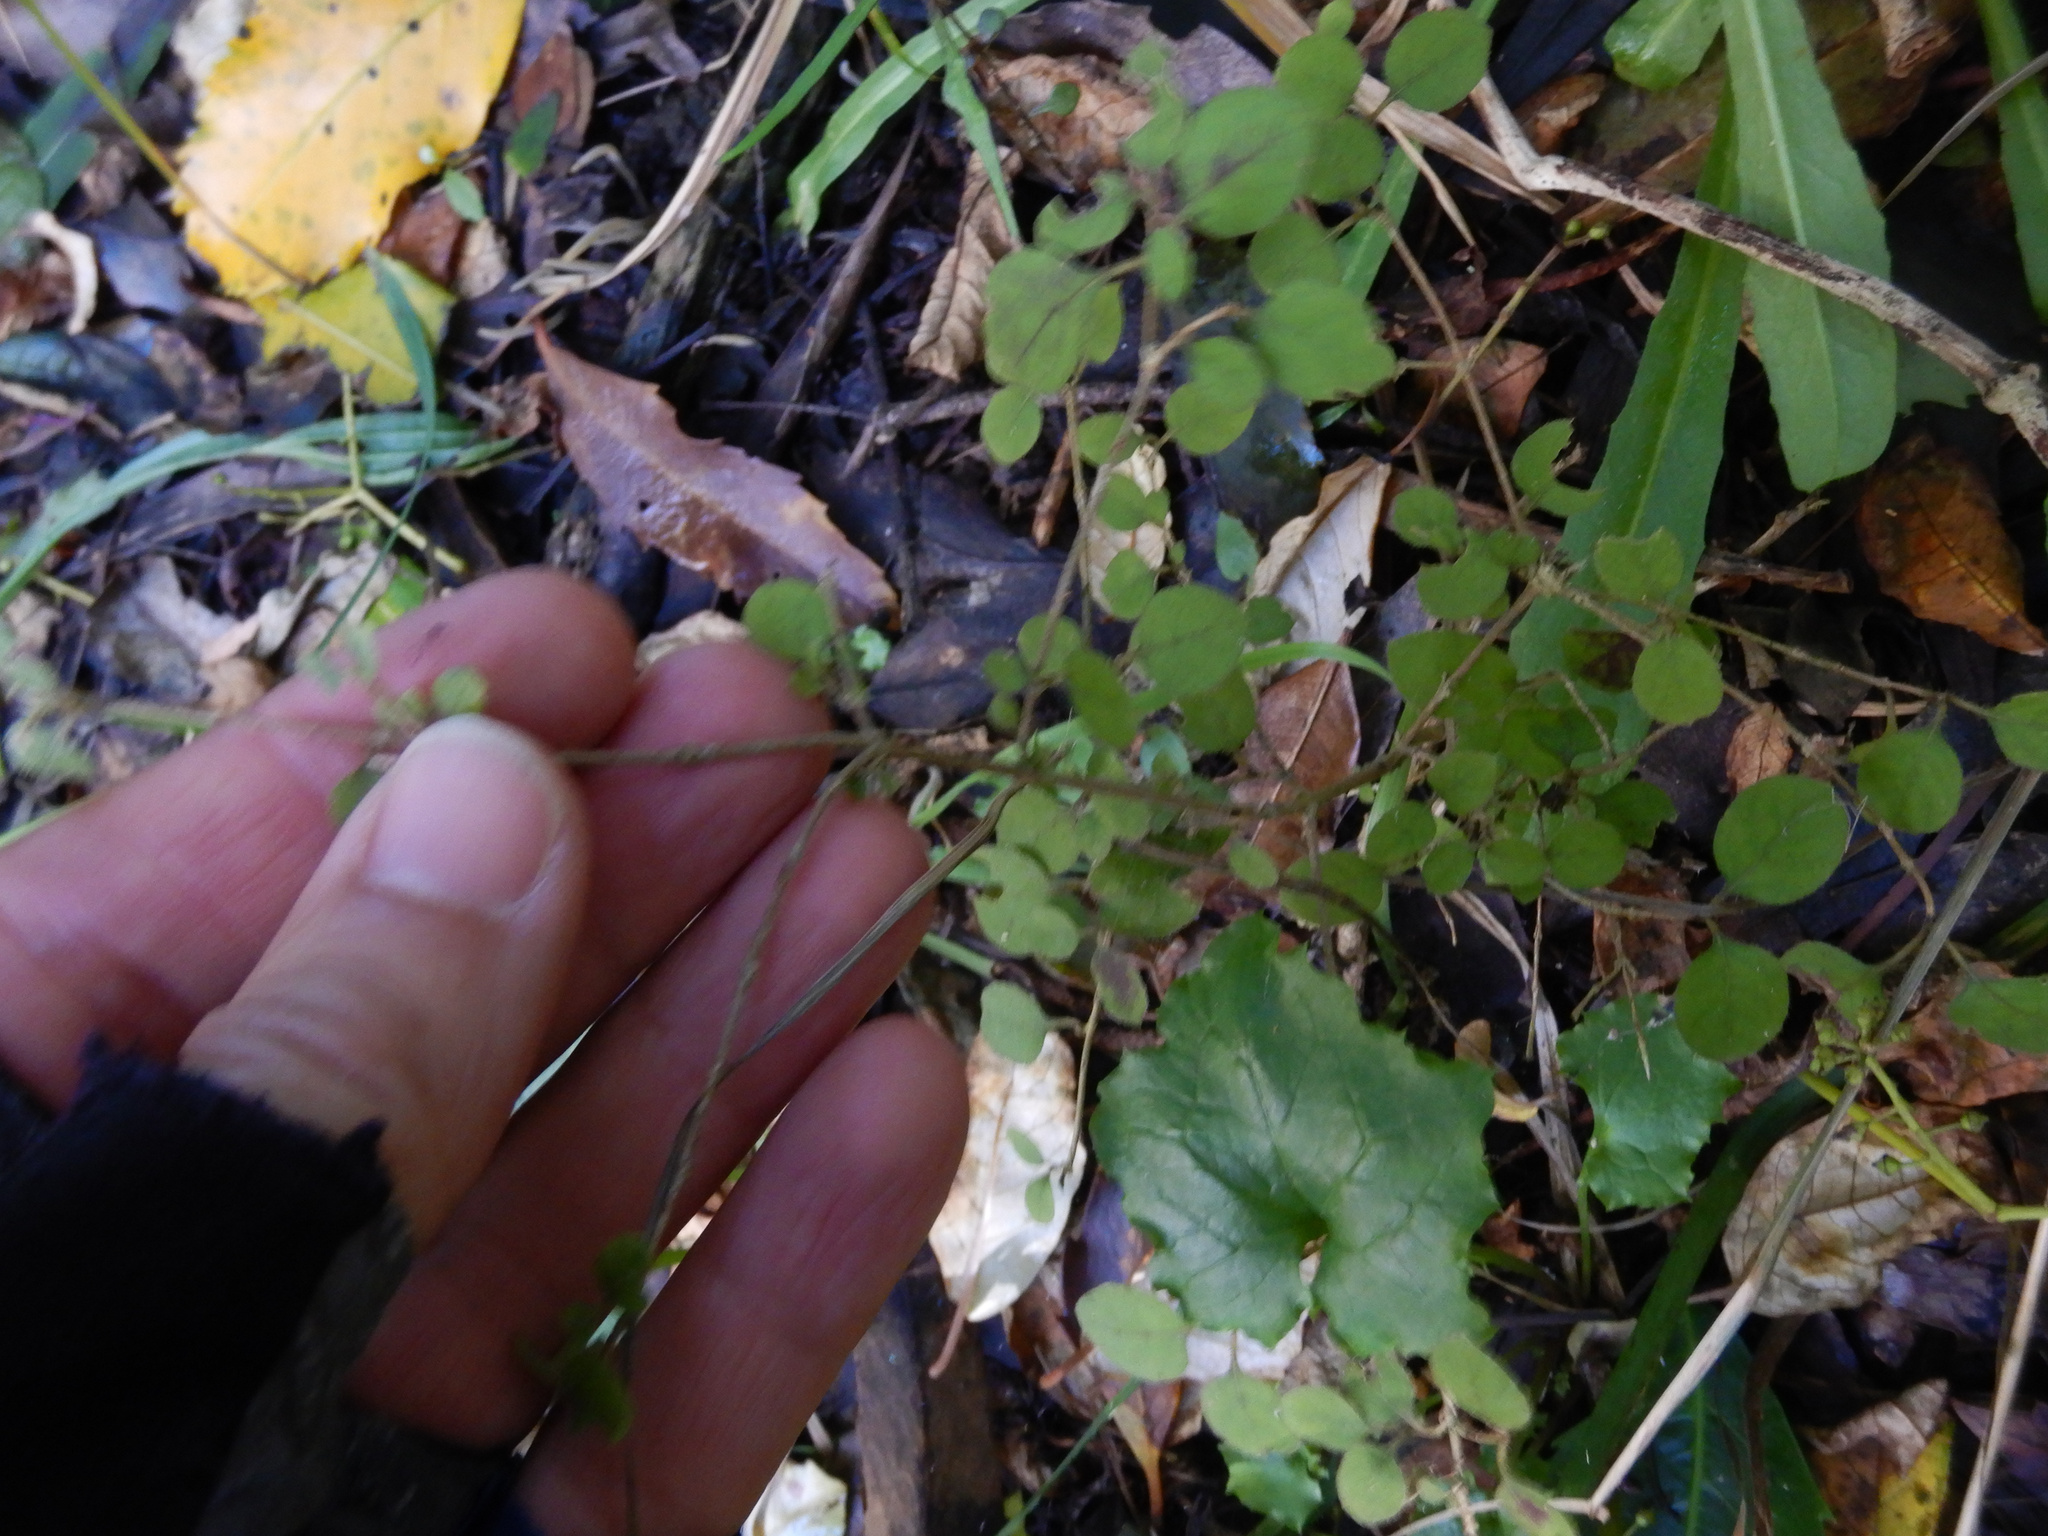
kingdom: Plantae
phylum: Tracheophyta
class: Magnoliopsida
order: Gentianales
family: Rubiaceae
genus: Coprosma
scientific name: Coprosma rotundifolia
